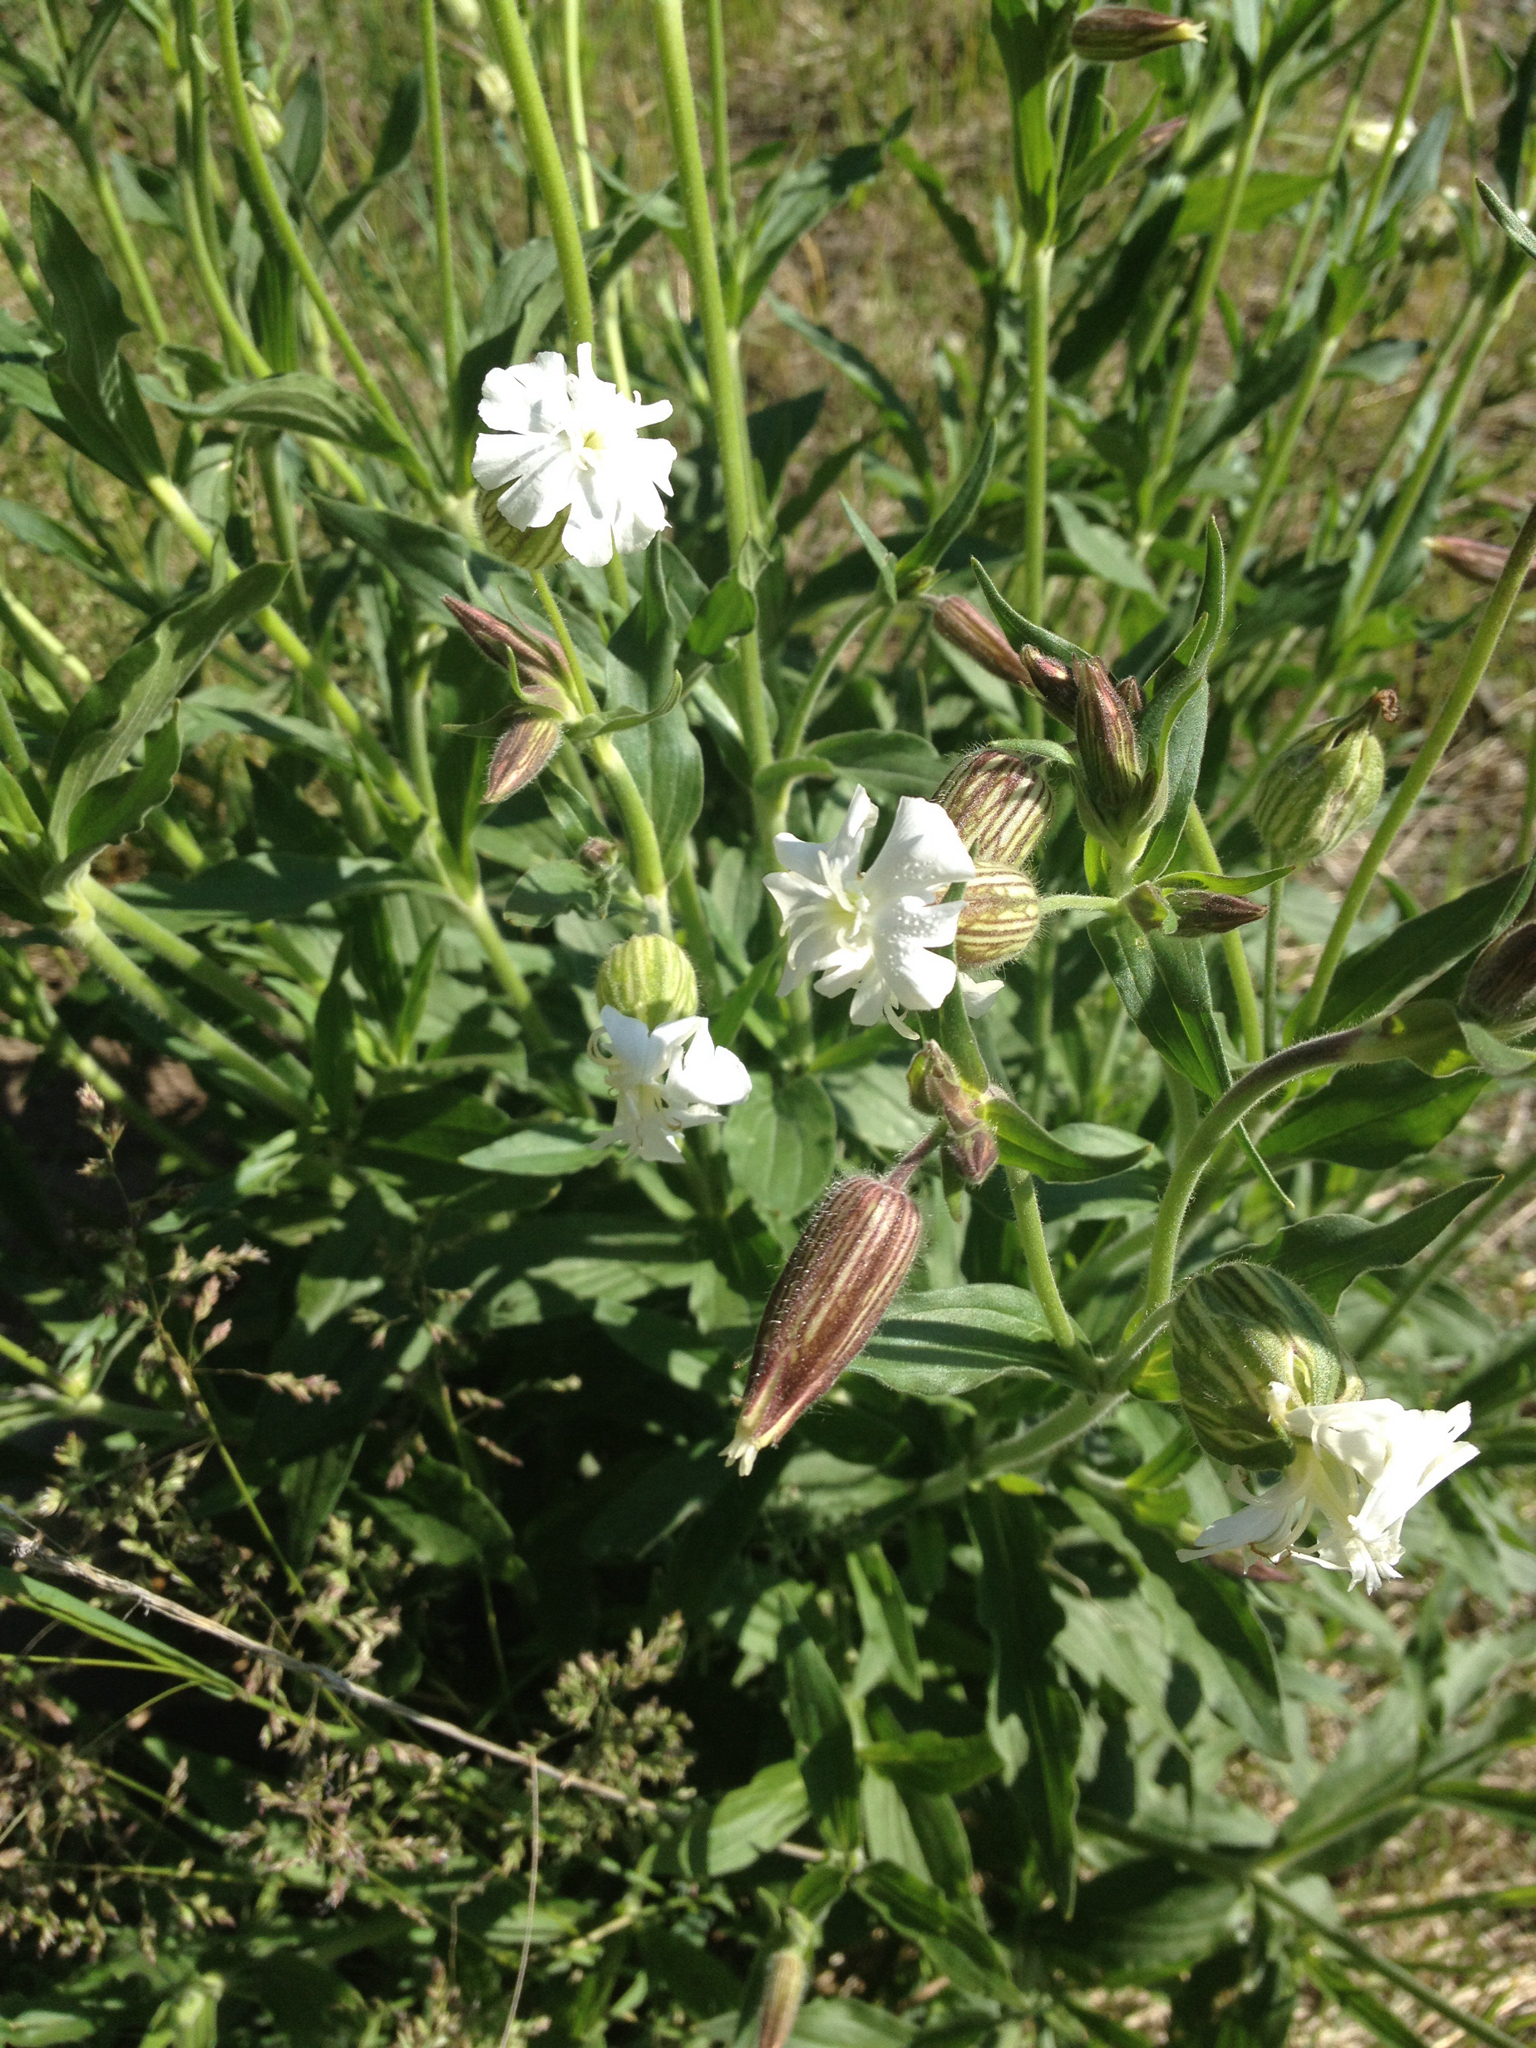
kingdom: Plantae
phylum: Tracheophyta
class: Magnoliopsida
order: Caryophyllales
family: Caryophyllaceae
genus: Silene
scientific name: Silene latifolia
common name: White campion
